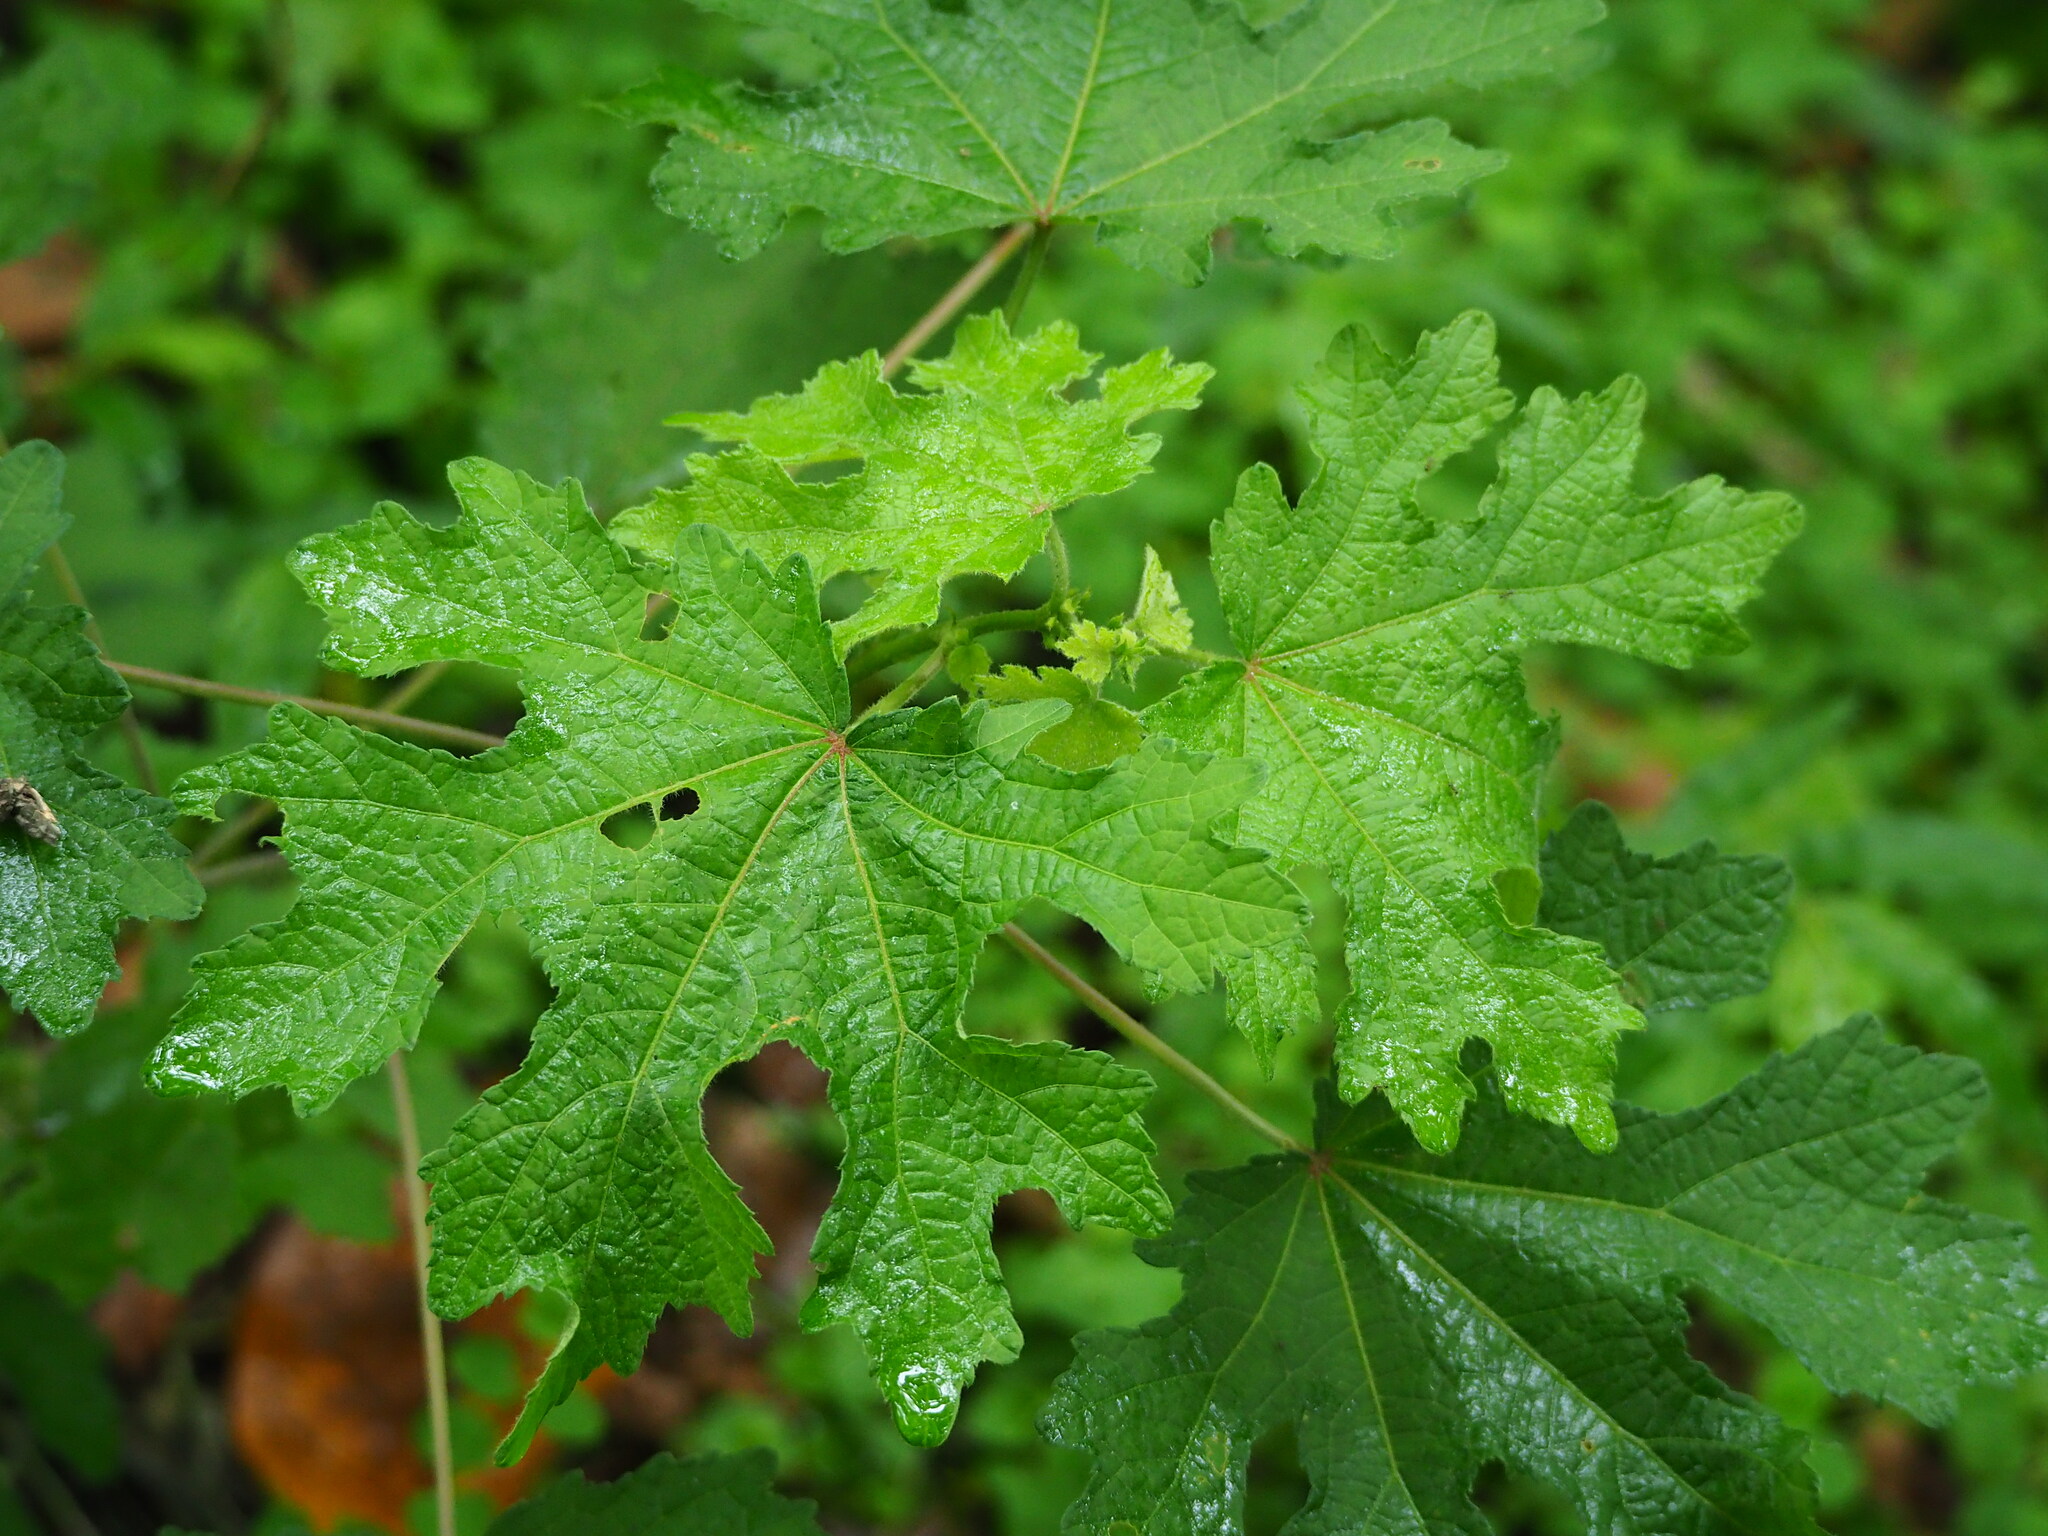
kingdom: Plantae
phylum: Tracheophyta
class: Magnoliopsida
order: Malvales
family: Malvaceae
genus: Urena
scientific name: Urena lobata
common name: Caesarweed
